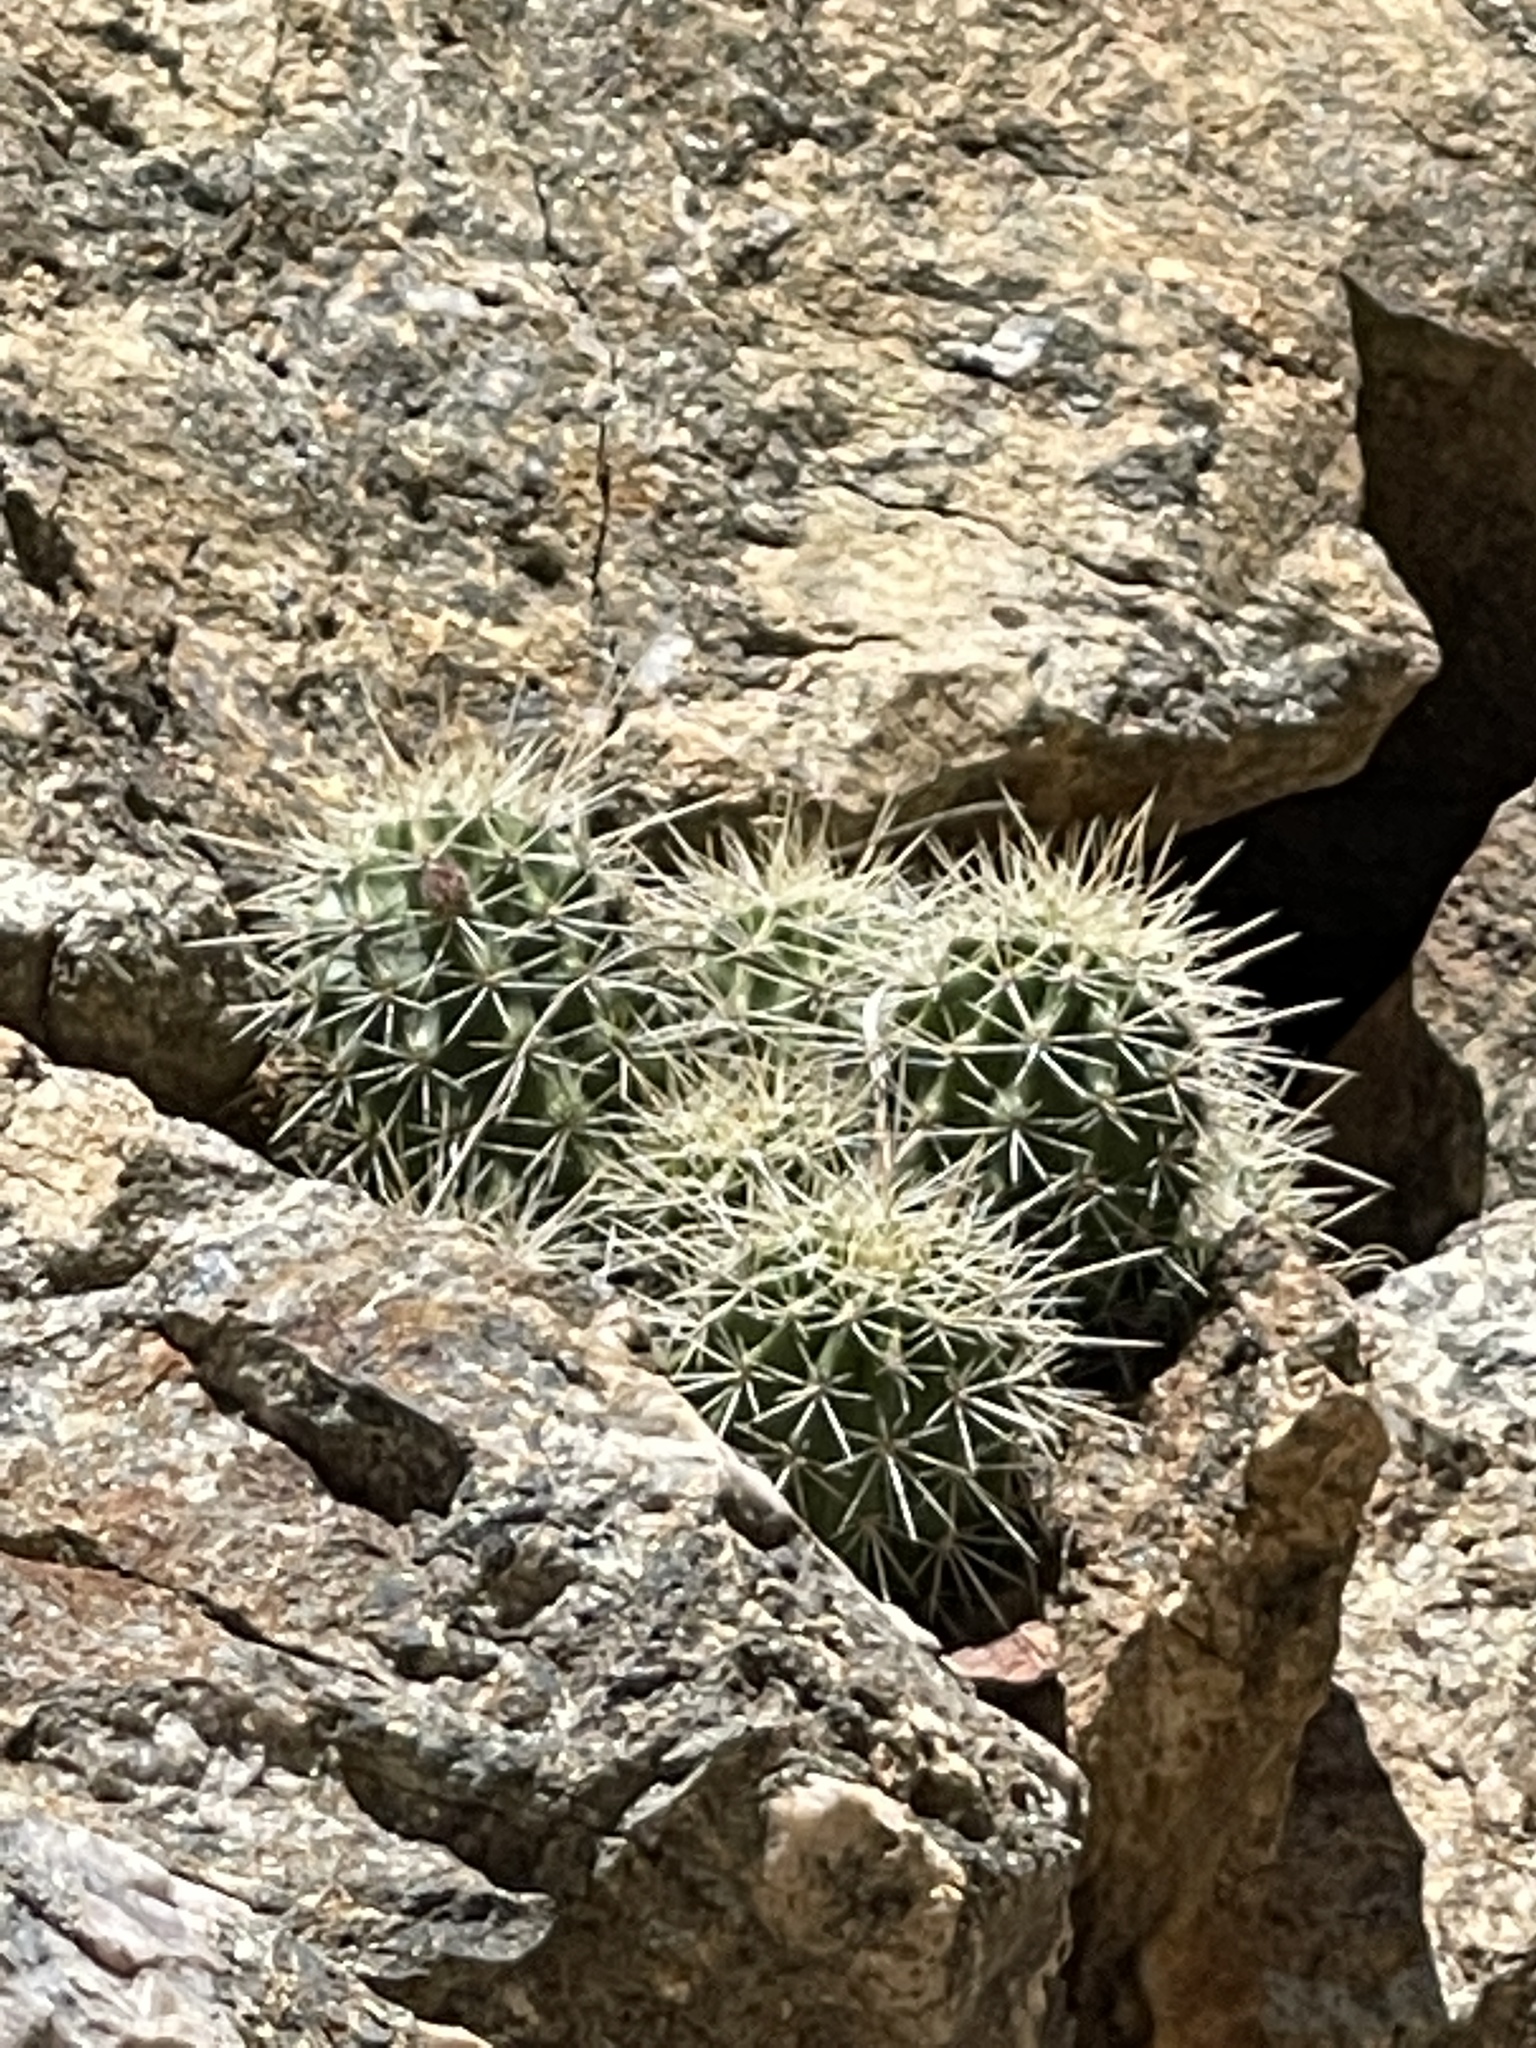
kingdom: Plantae
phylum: Tracheophyta
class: Magnoliopsida
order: Caryophyllales
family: Cactaceae
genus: Echinocereus
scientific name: Echinocereus bakeri
